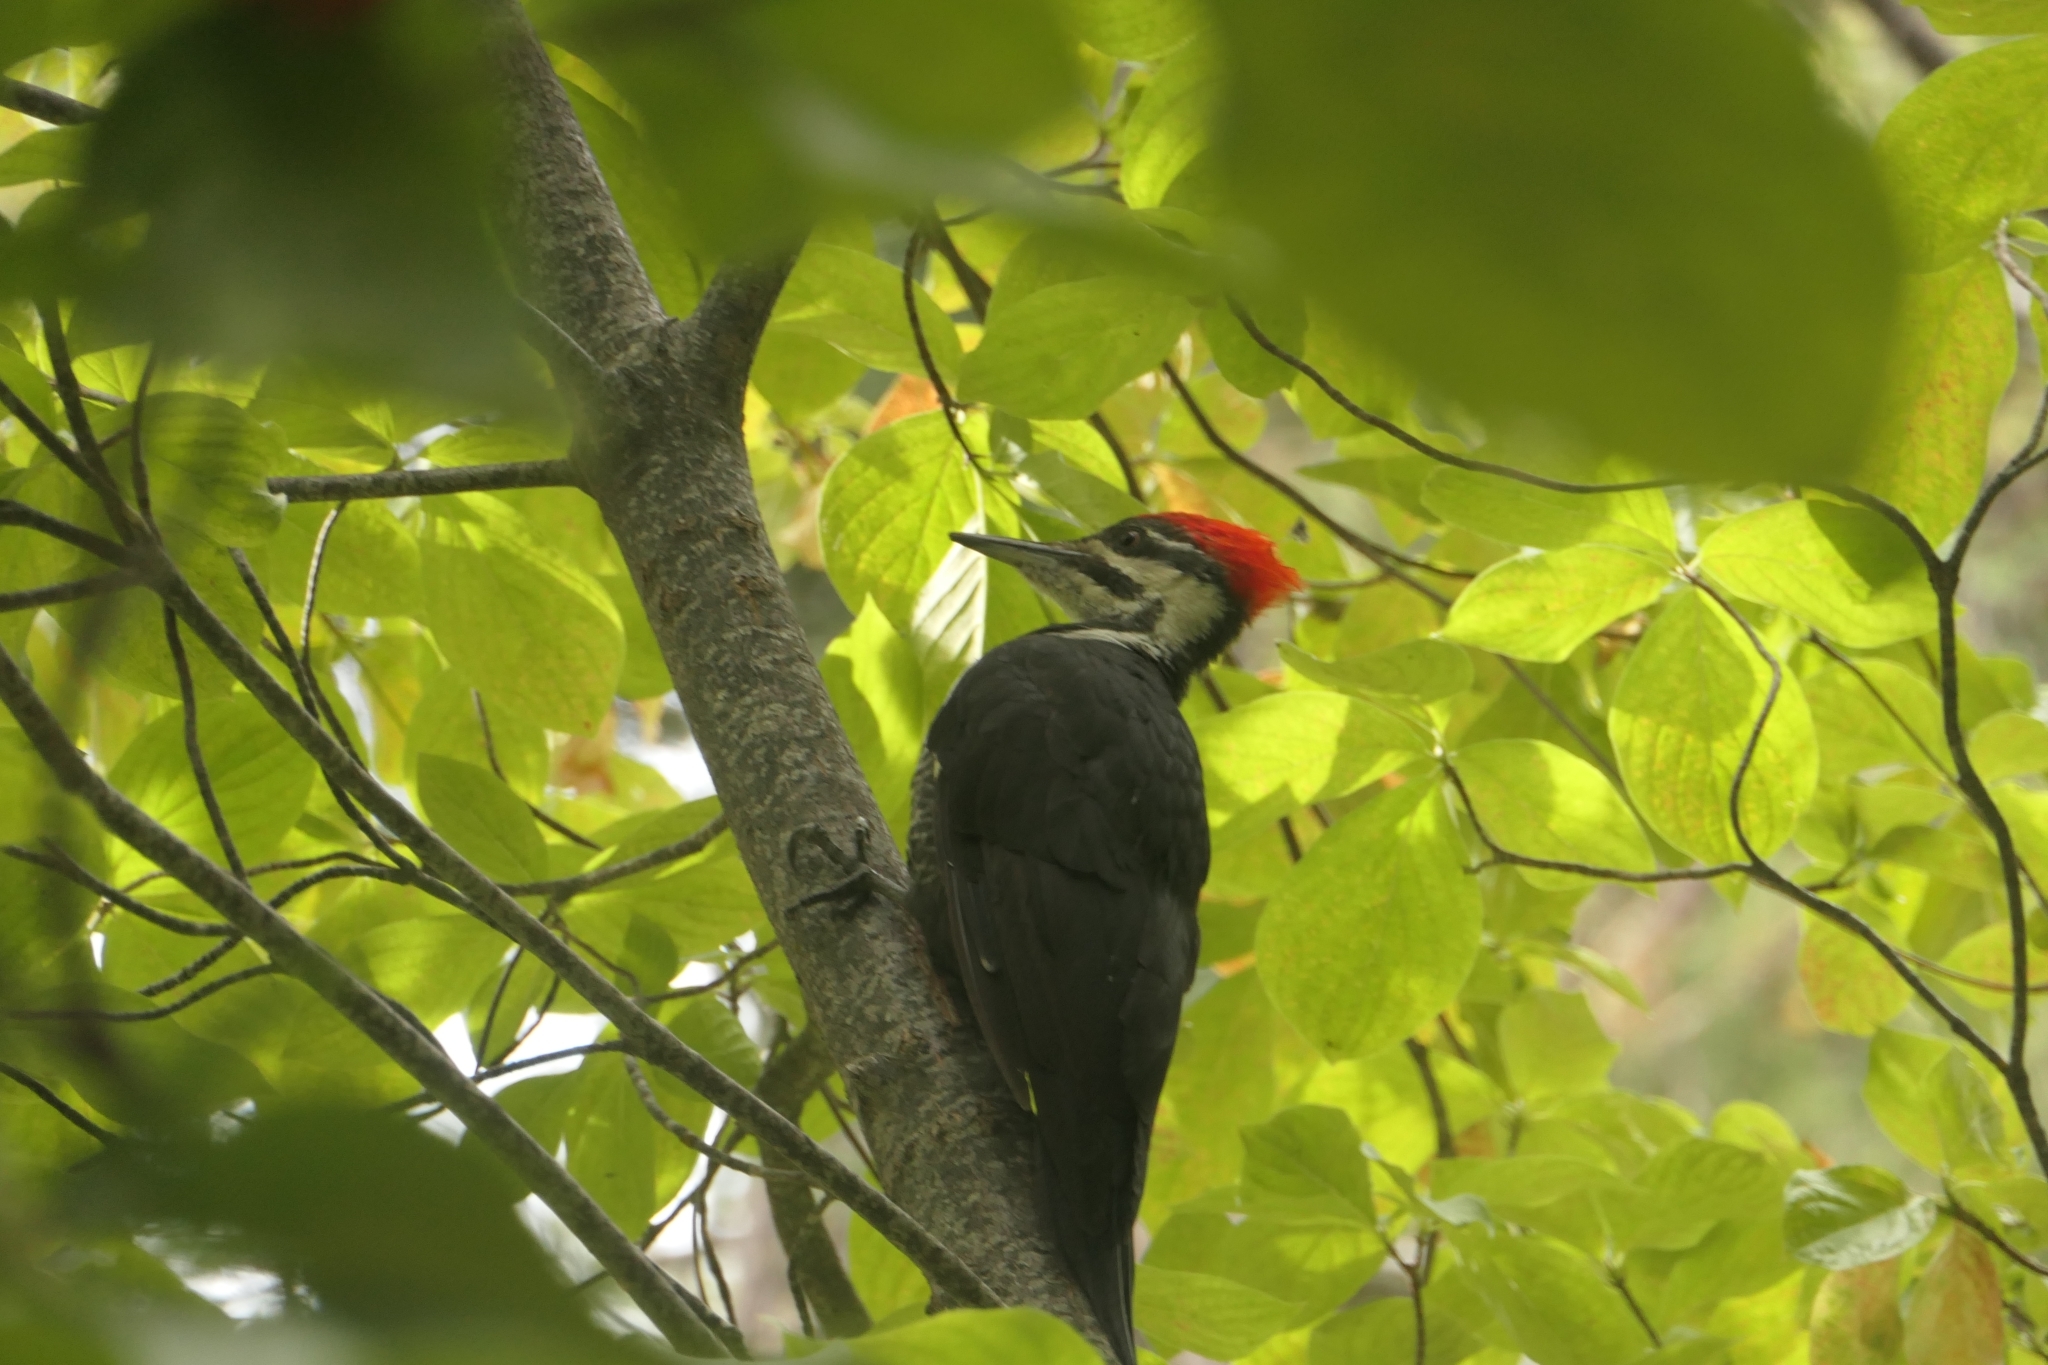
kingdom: Animalia
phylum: Chordata
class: Aves
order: Piciformes
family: Picidae
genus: Dryocopus
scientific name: Dryocopus pileatus
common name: Pileated woodpecker
